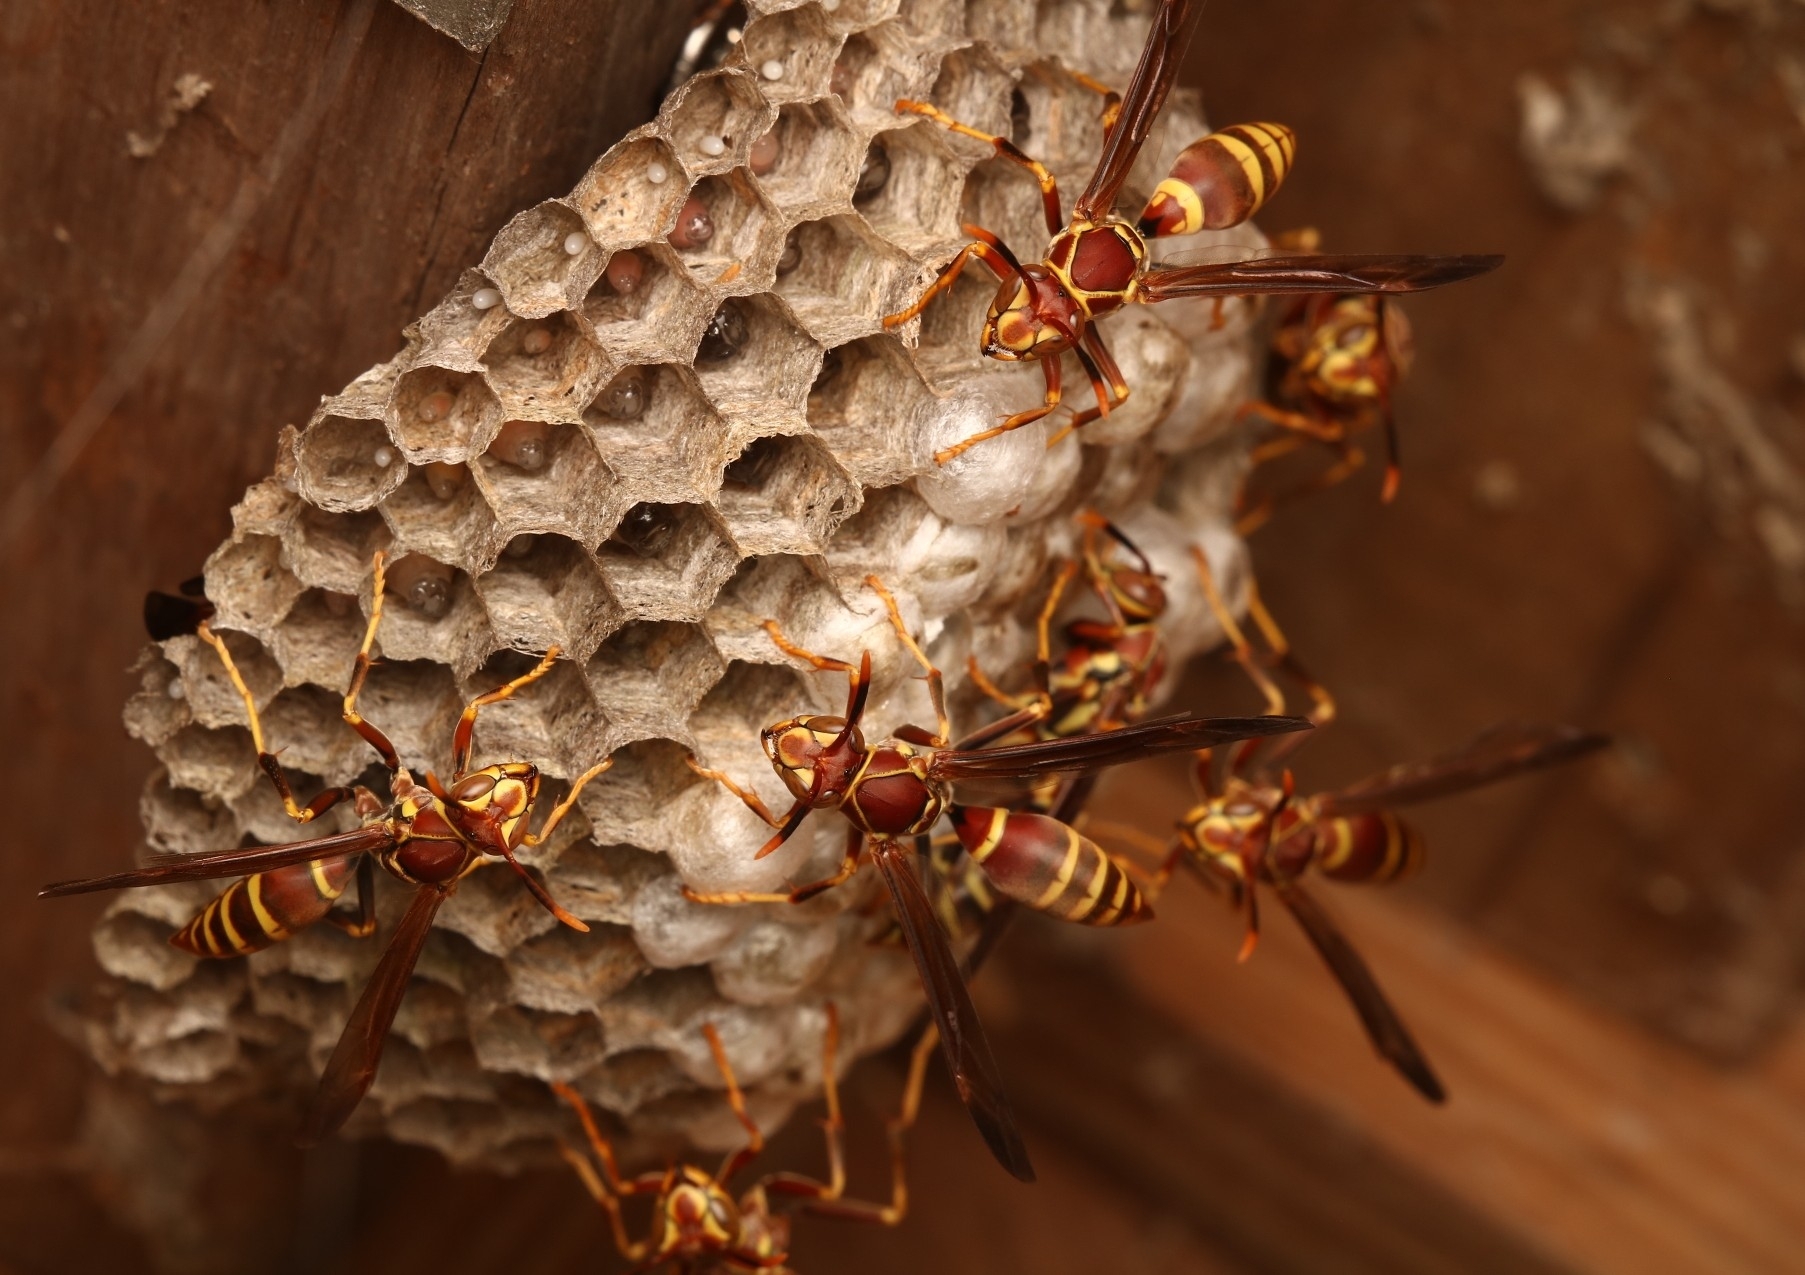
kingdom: Animalia
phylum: Arthropoda
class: Insecta
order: Hymenoptera
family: Eumenidae
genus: Polistes
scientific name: Polistes exclamans
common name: Paper wasp
